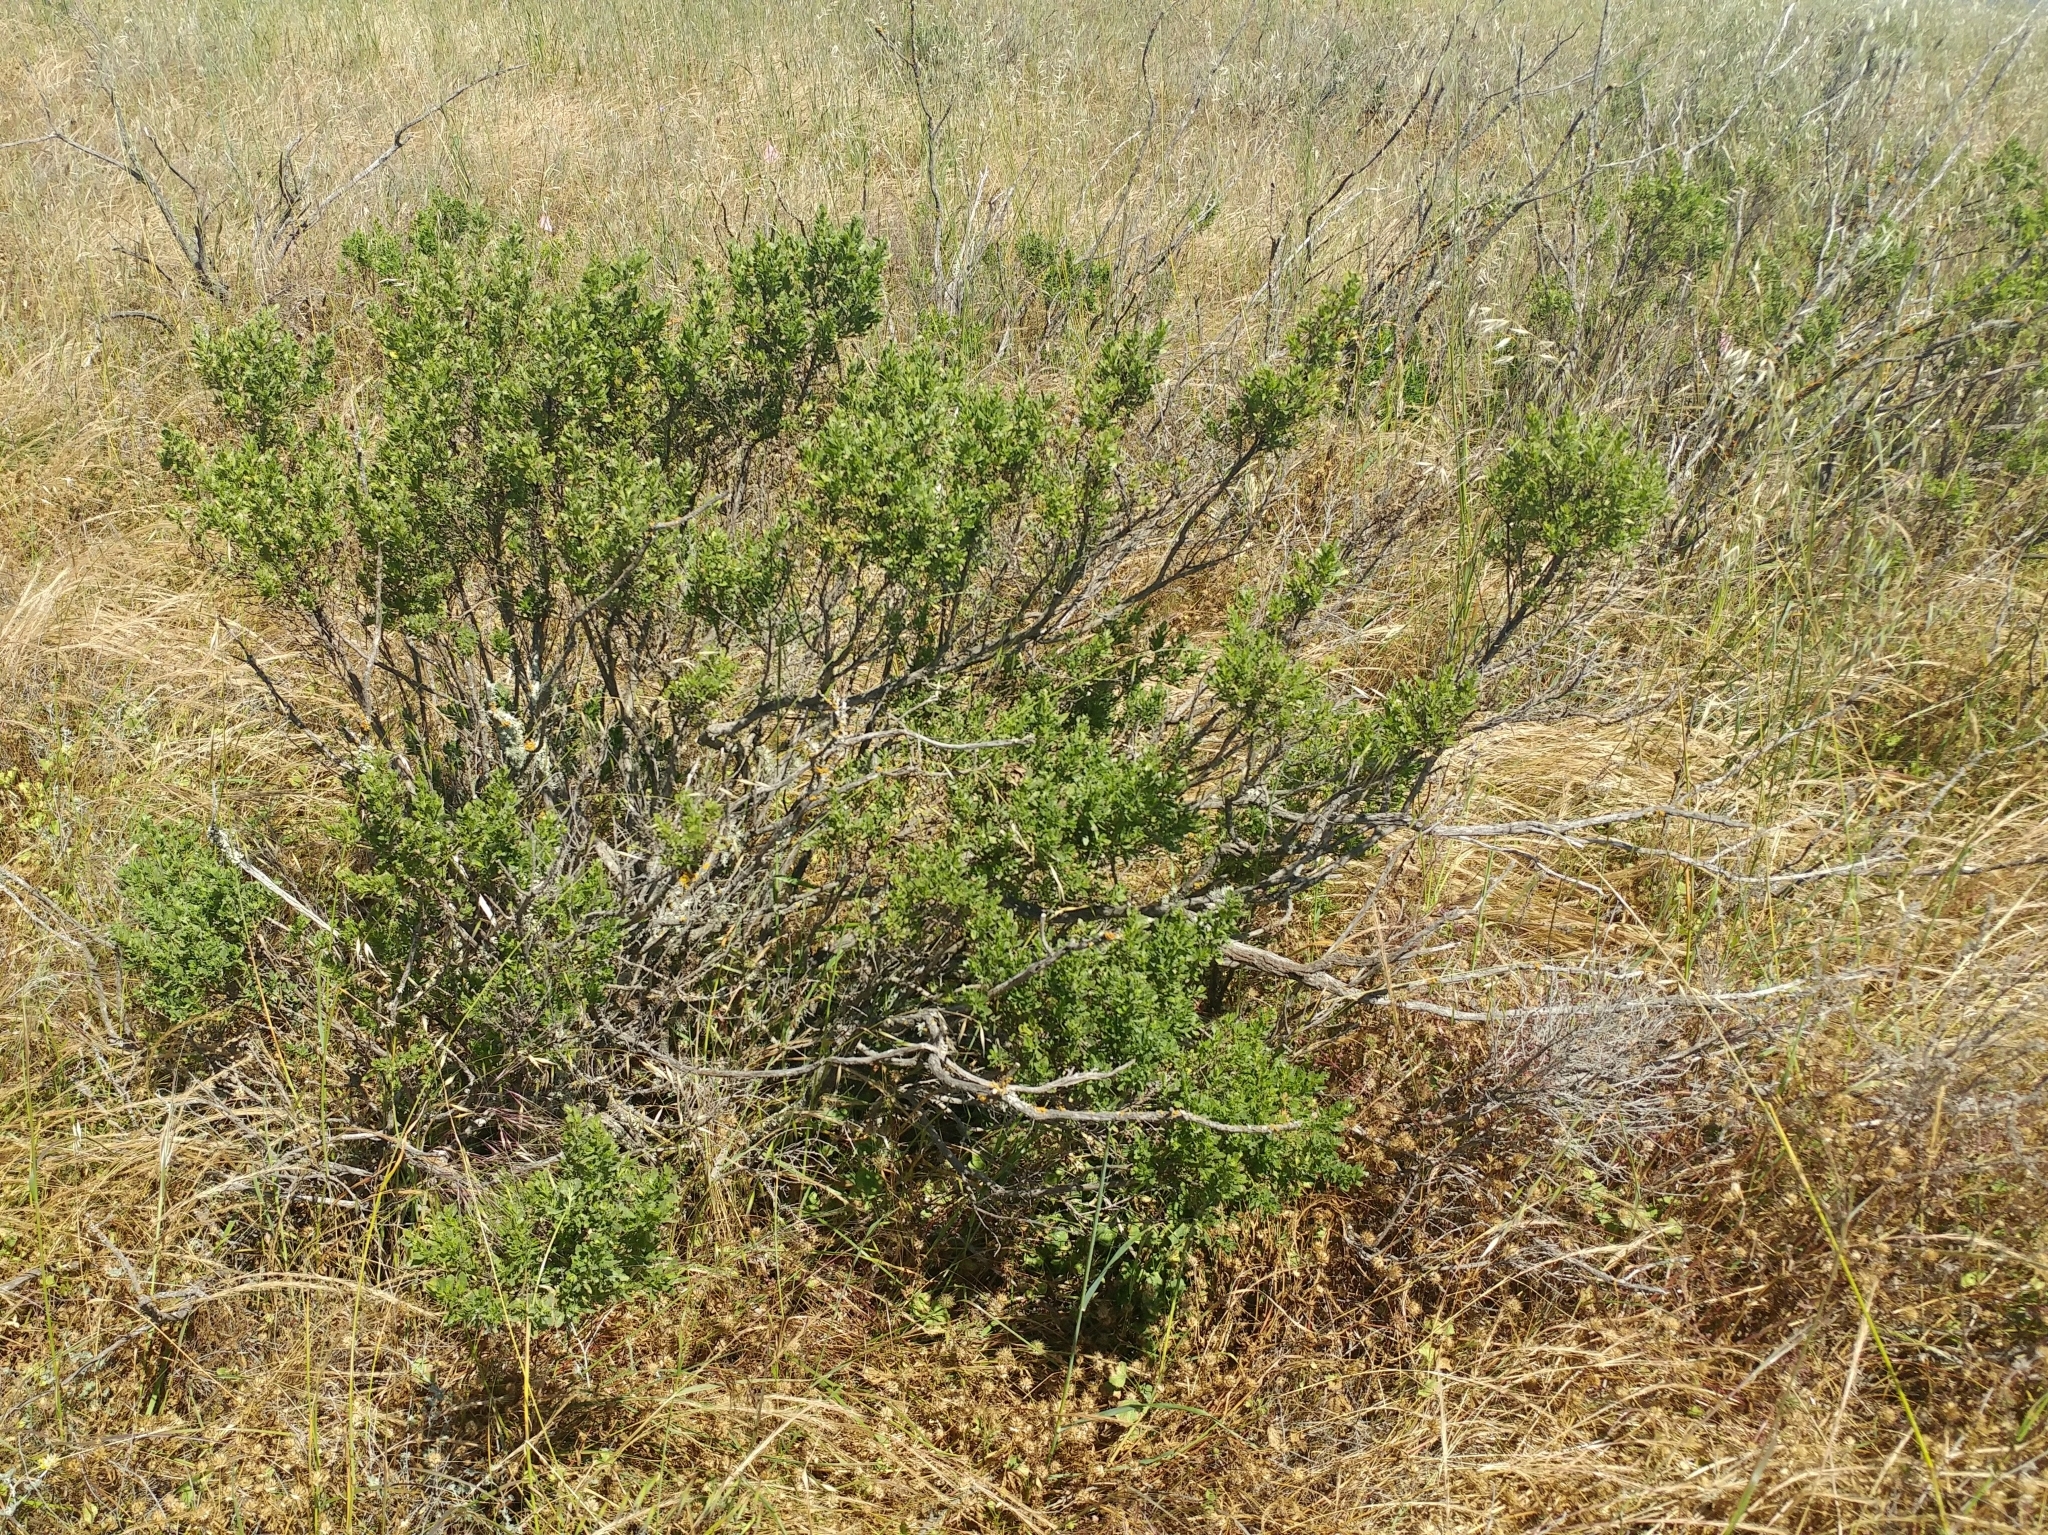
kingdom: Plantae
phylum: Tracheophyta
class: Magnoliopsida
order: Asterales
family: Asteraceae
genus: Baccharis
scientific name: Baccharis pilularis
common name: Coyotebrush
